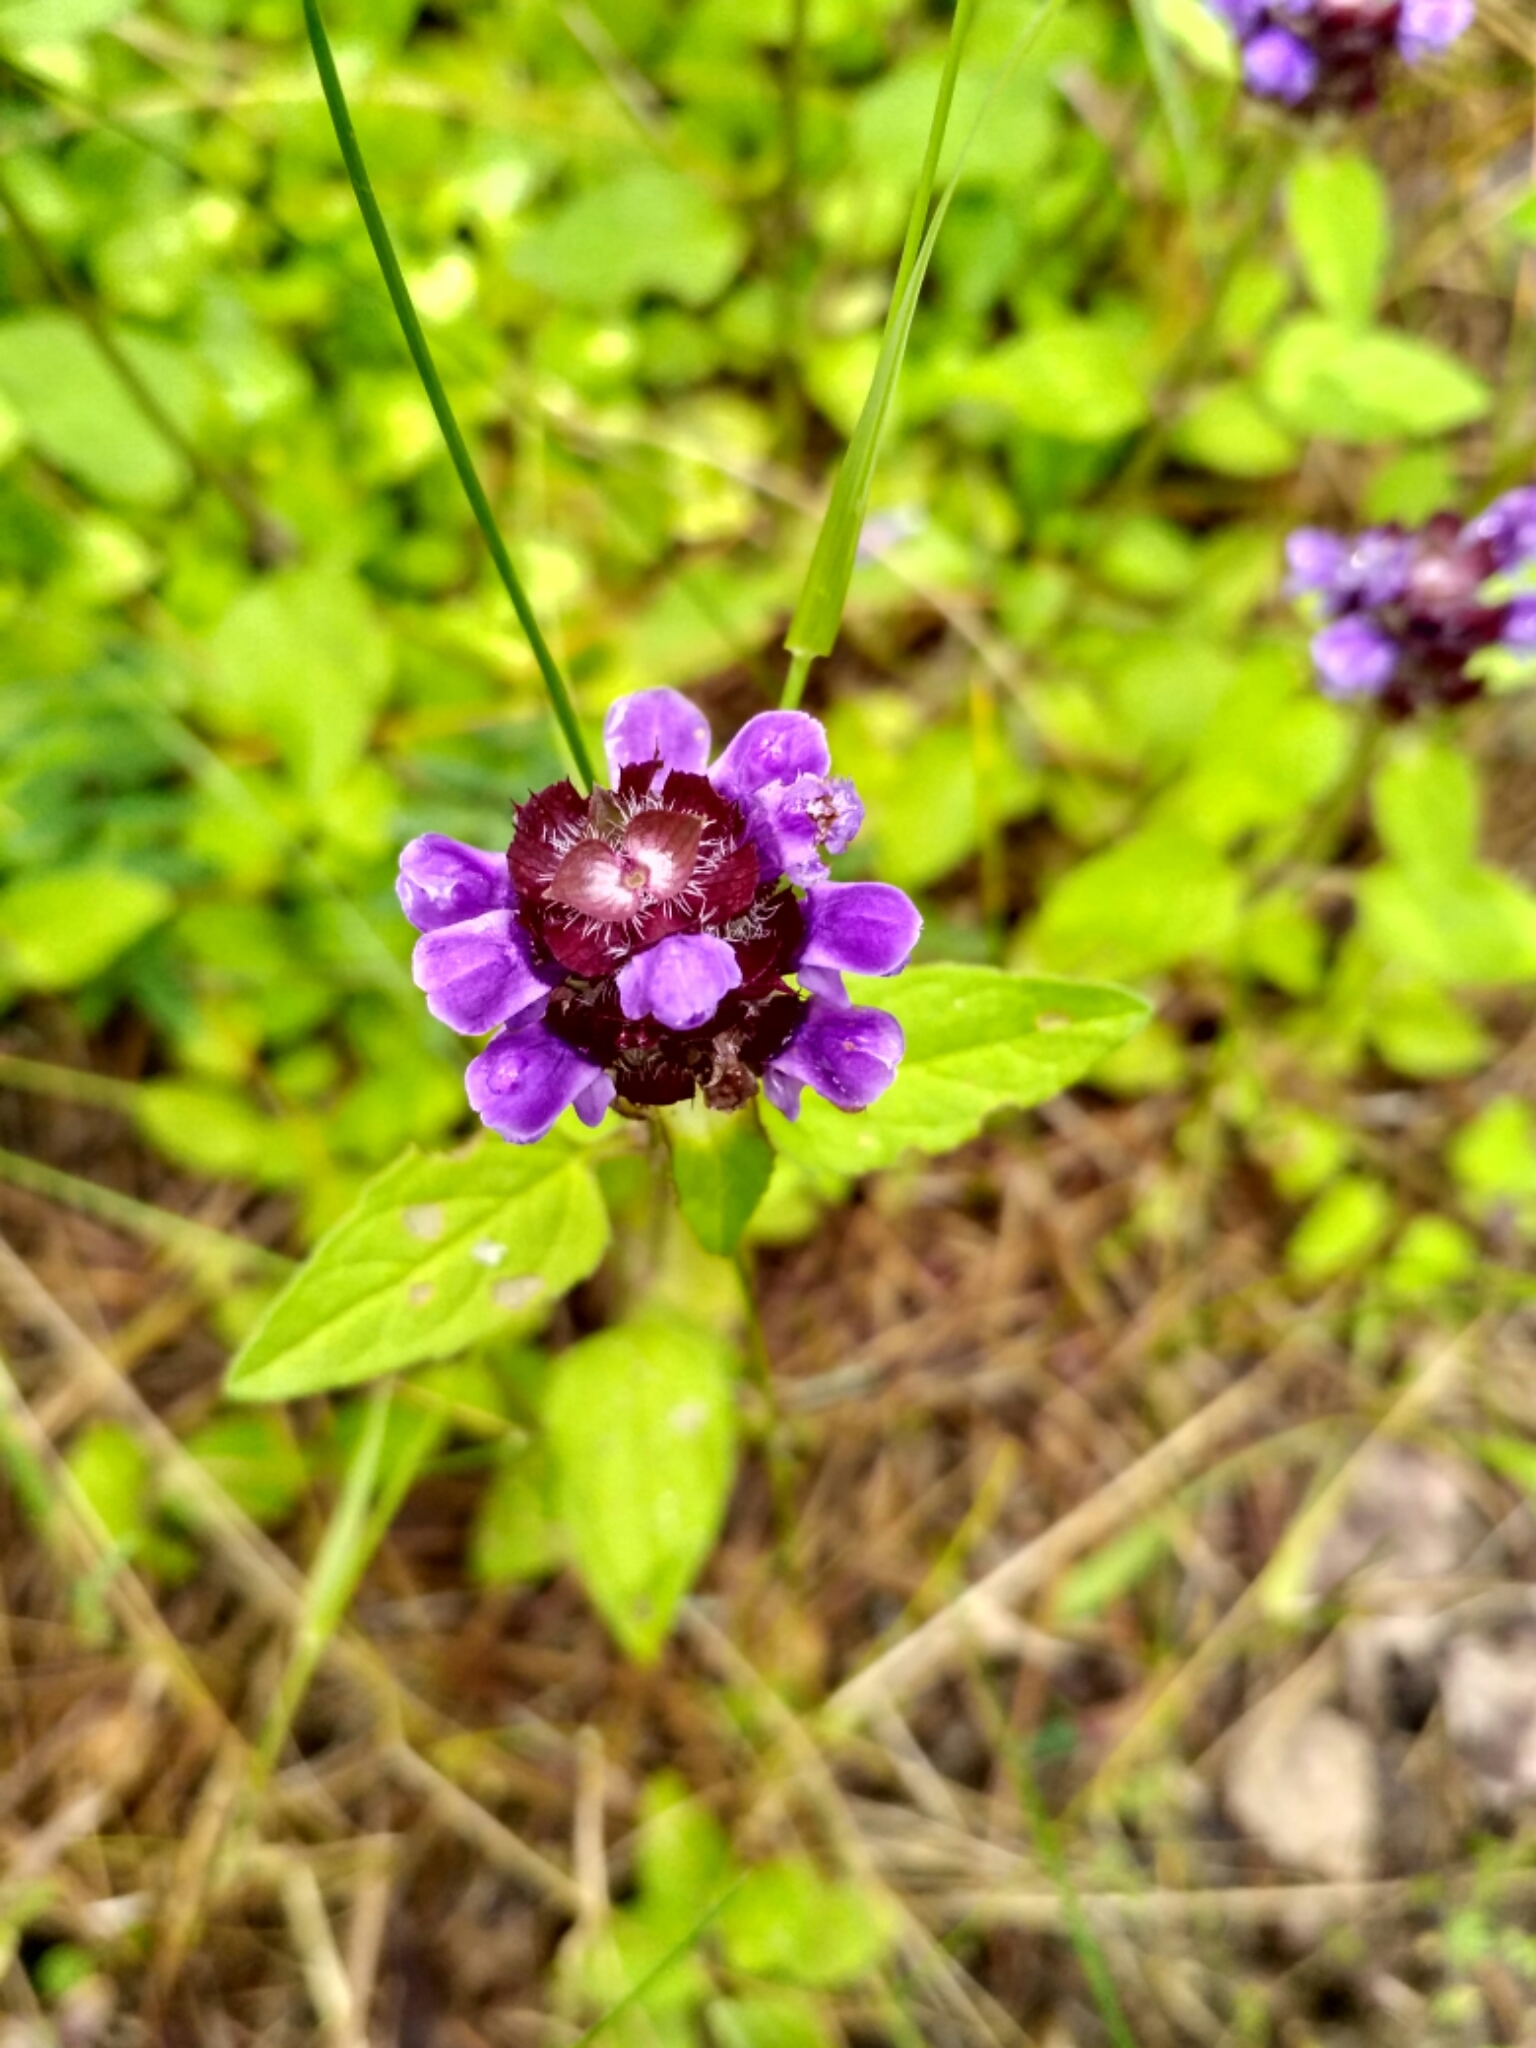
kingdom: Plantae
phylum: Tracheophyta
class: Magnoliopsida
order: Lamiales
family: Lamiaceae
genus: Prunella
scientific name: Prunella vulgaris
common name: Heal-all
